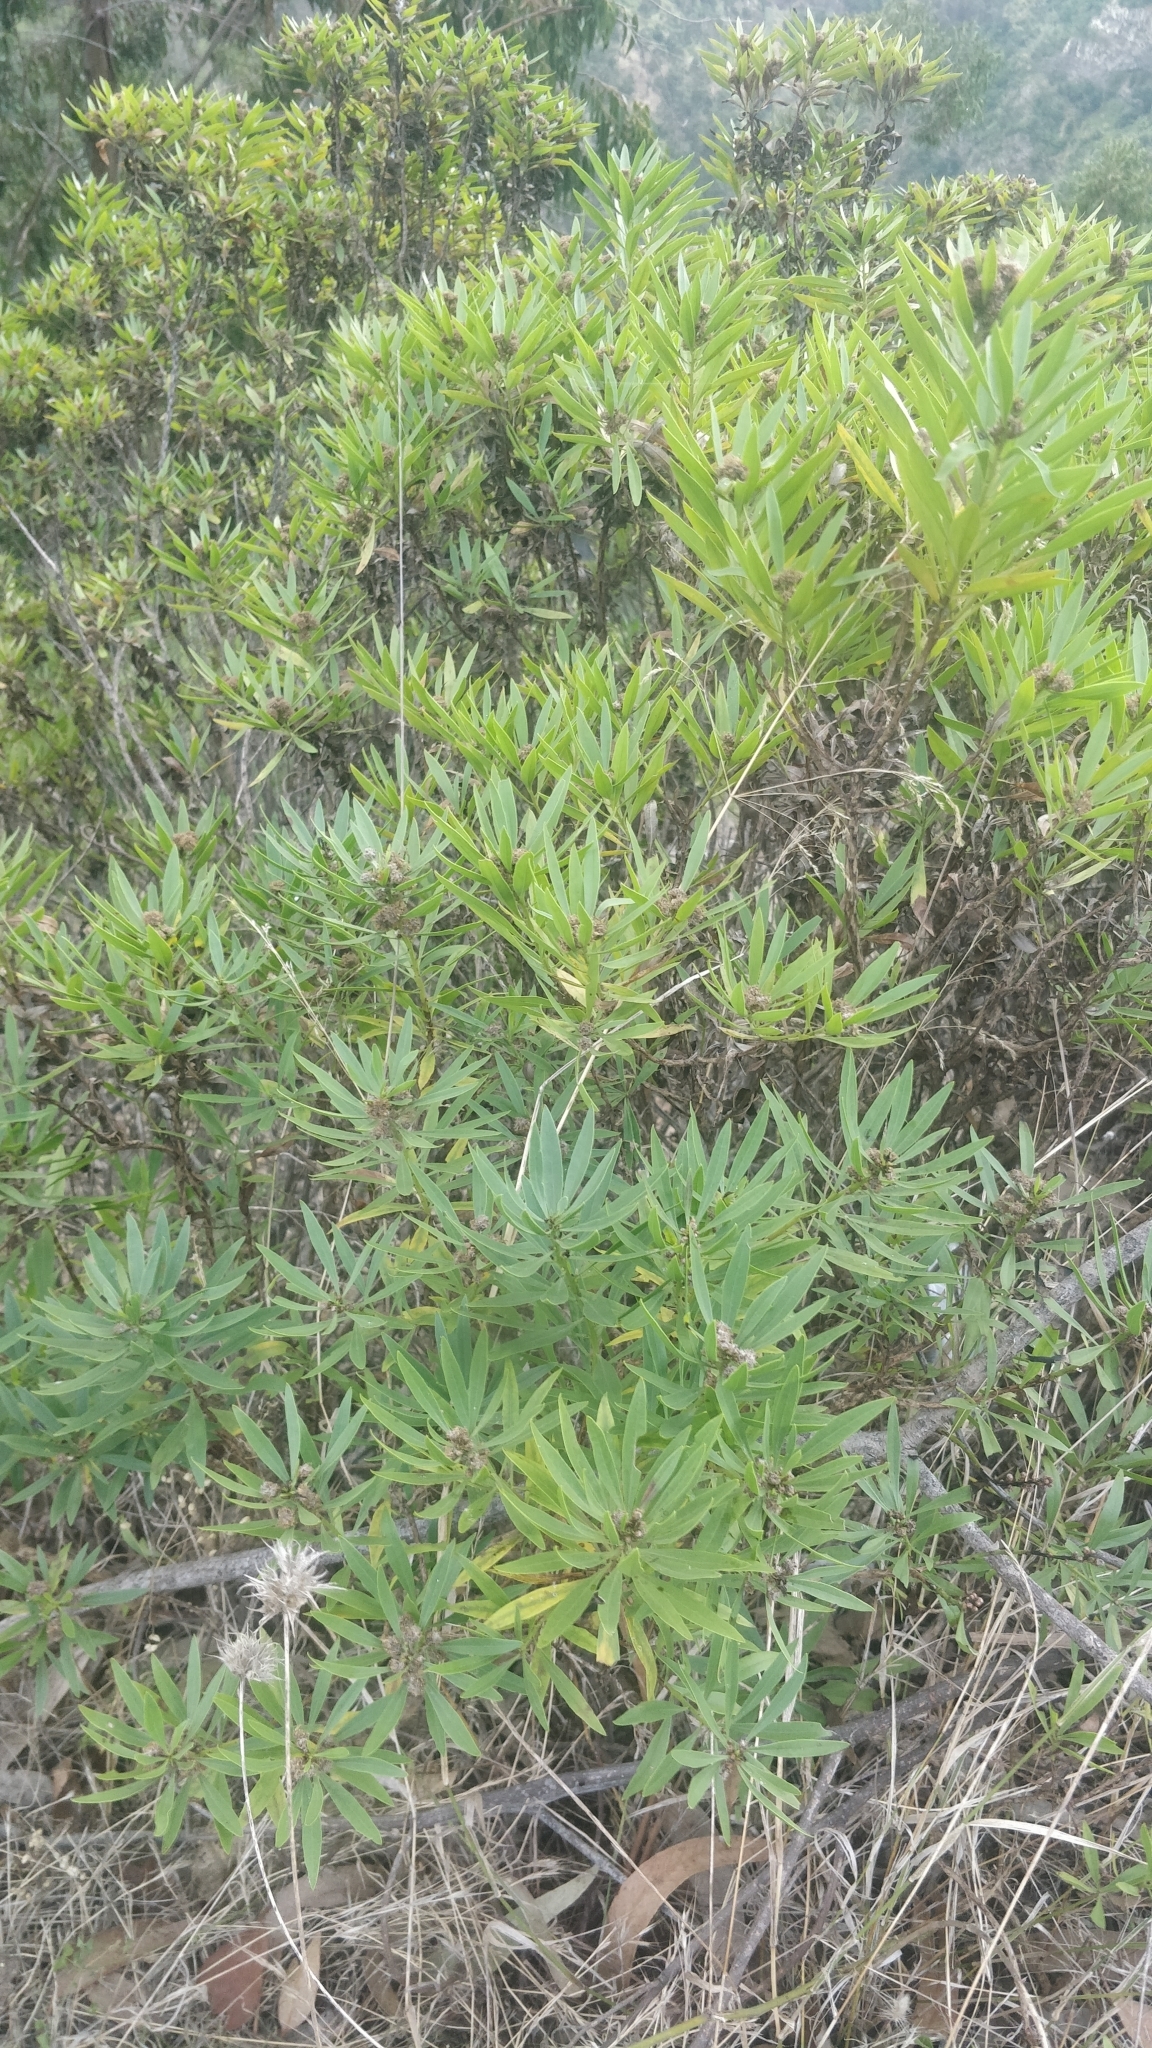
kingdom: Plantae
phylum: Tracheophyta
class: Magnoliopsida
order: Lamiales
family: Plantaginaceae
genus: Globularia
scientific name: Globularia salicina
